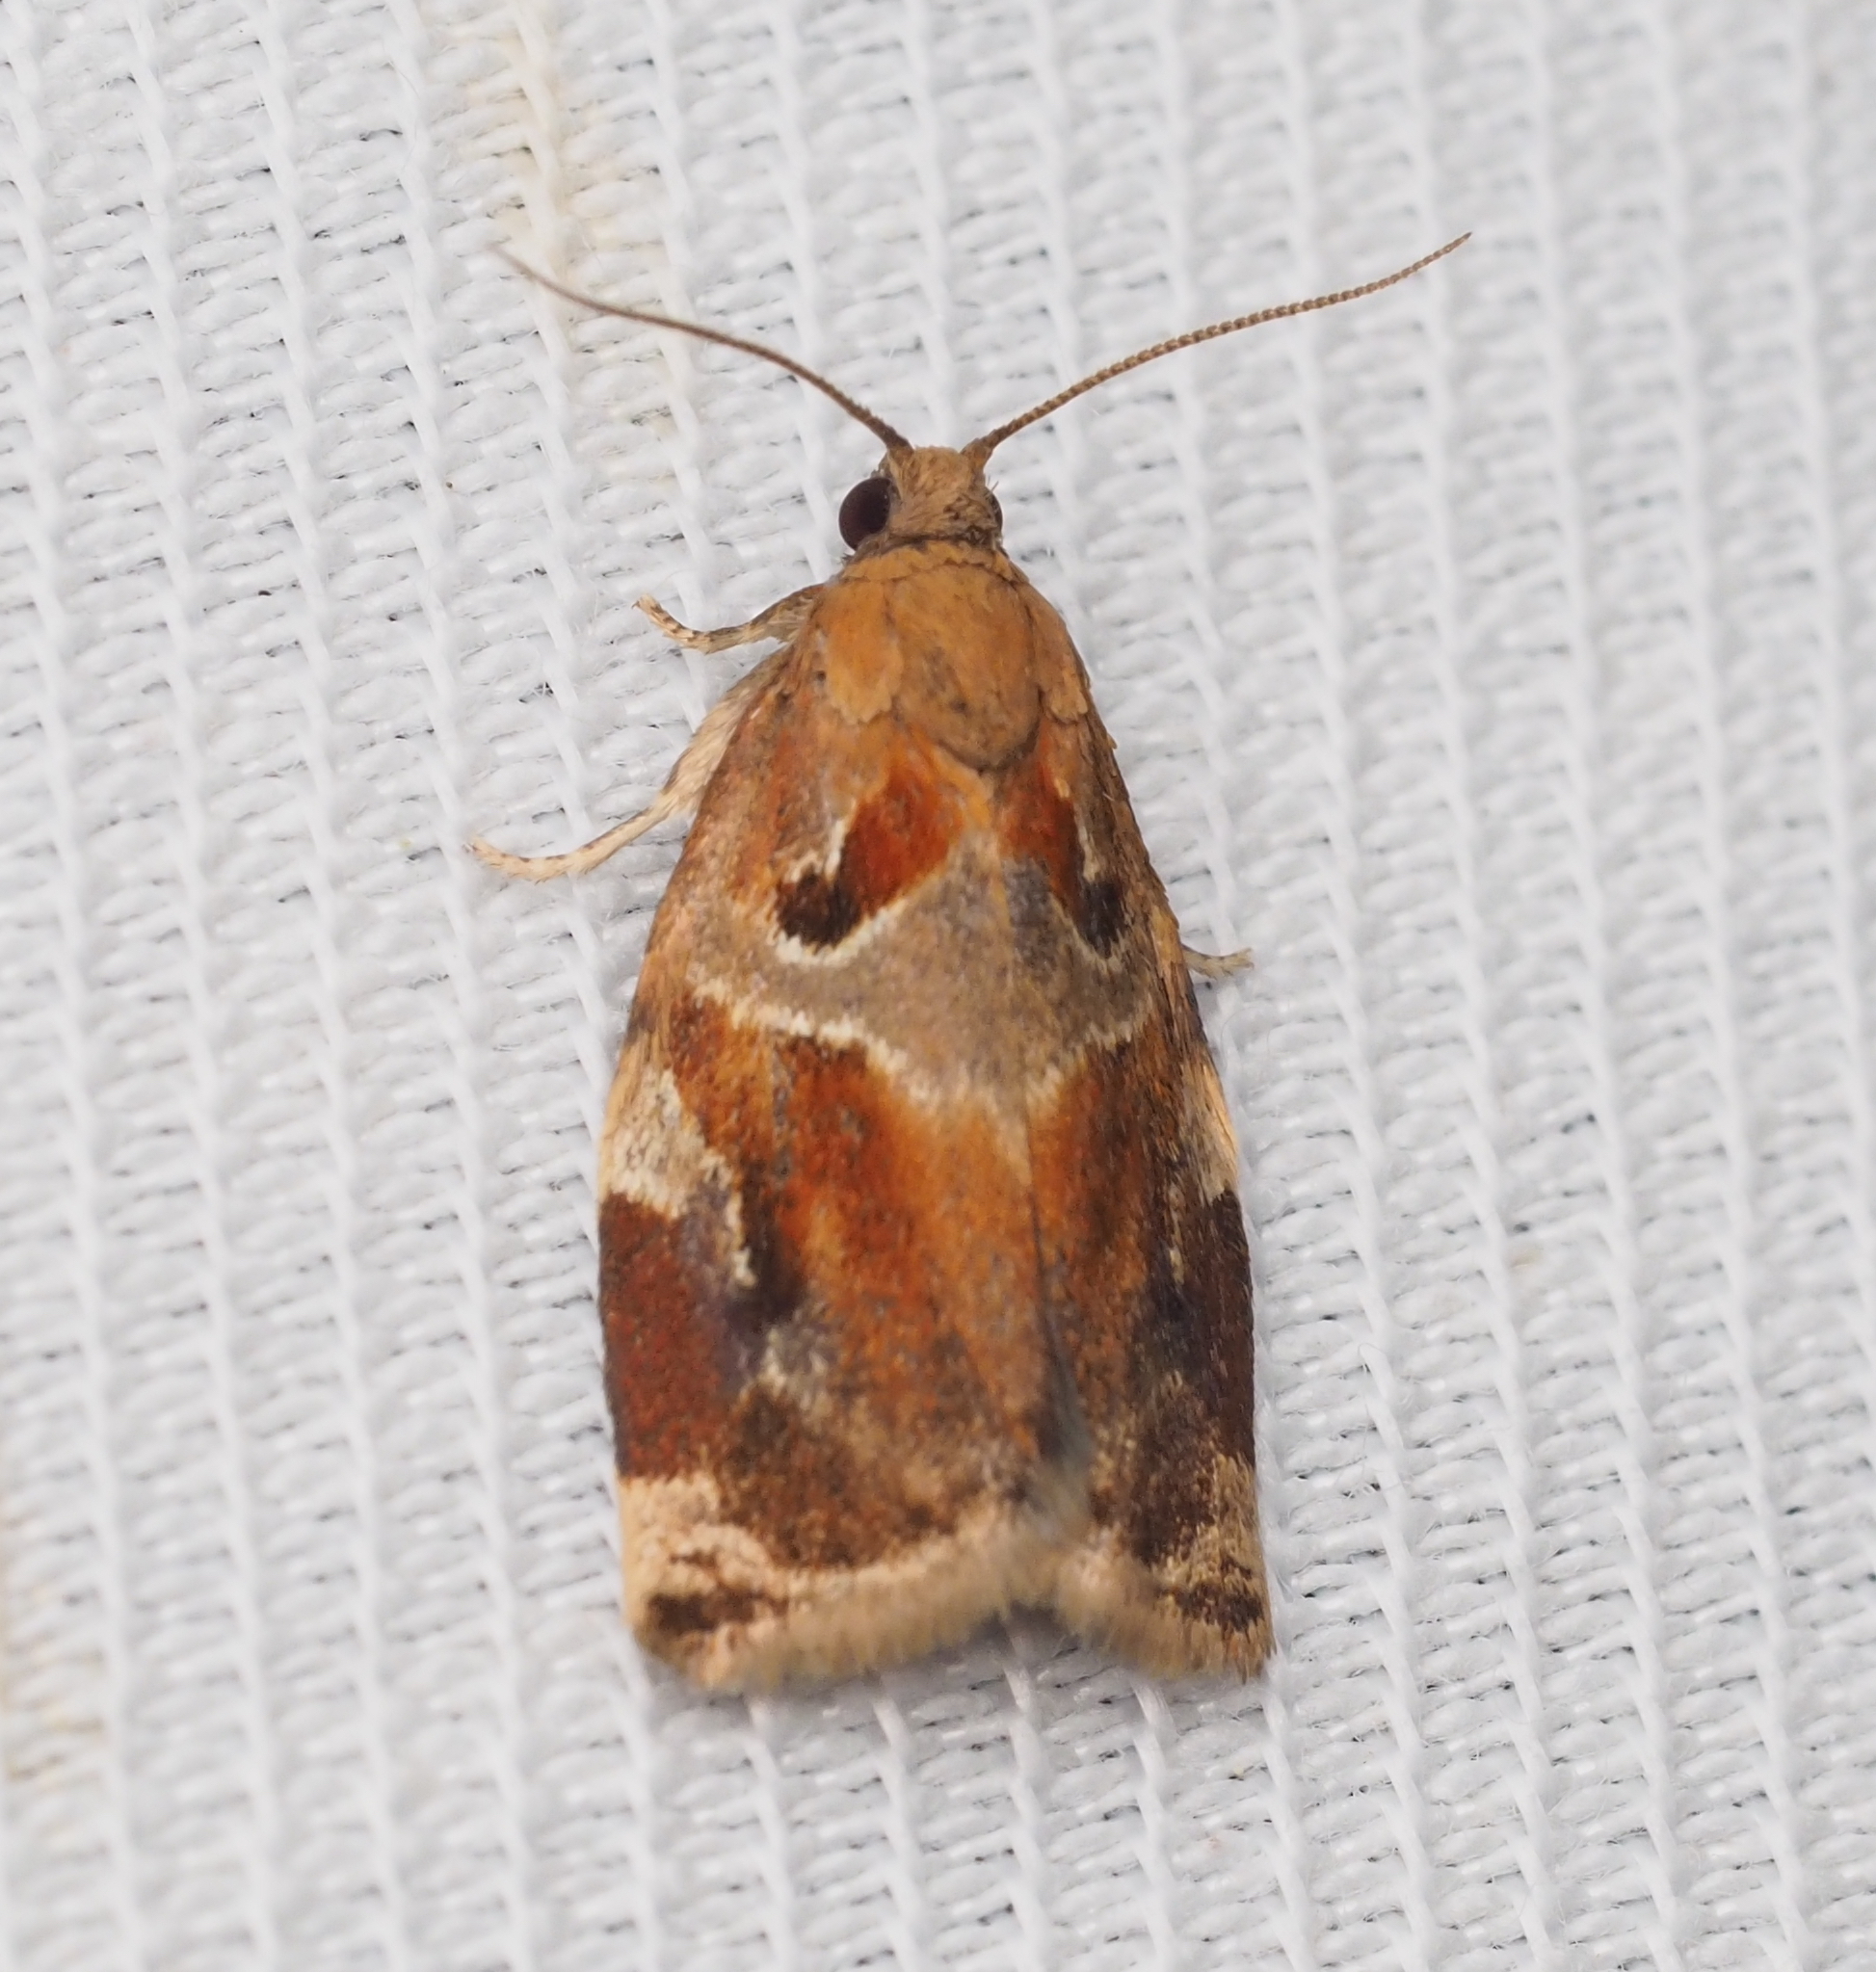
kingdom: Animalia
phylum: Arthropoda
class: Insecta
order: Lepidoptera
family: Tortricidae
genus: Archips
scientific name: Archips xylosteana
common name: Variegated golden tortrix
